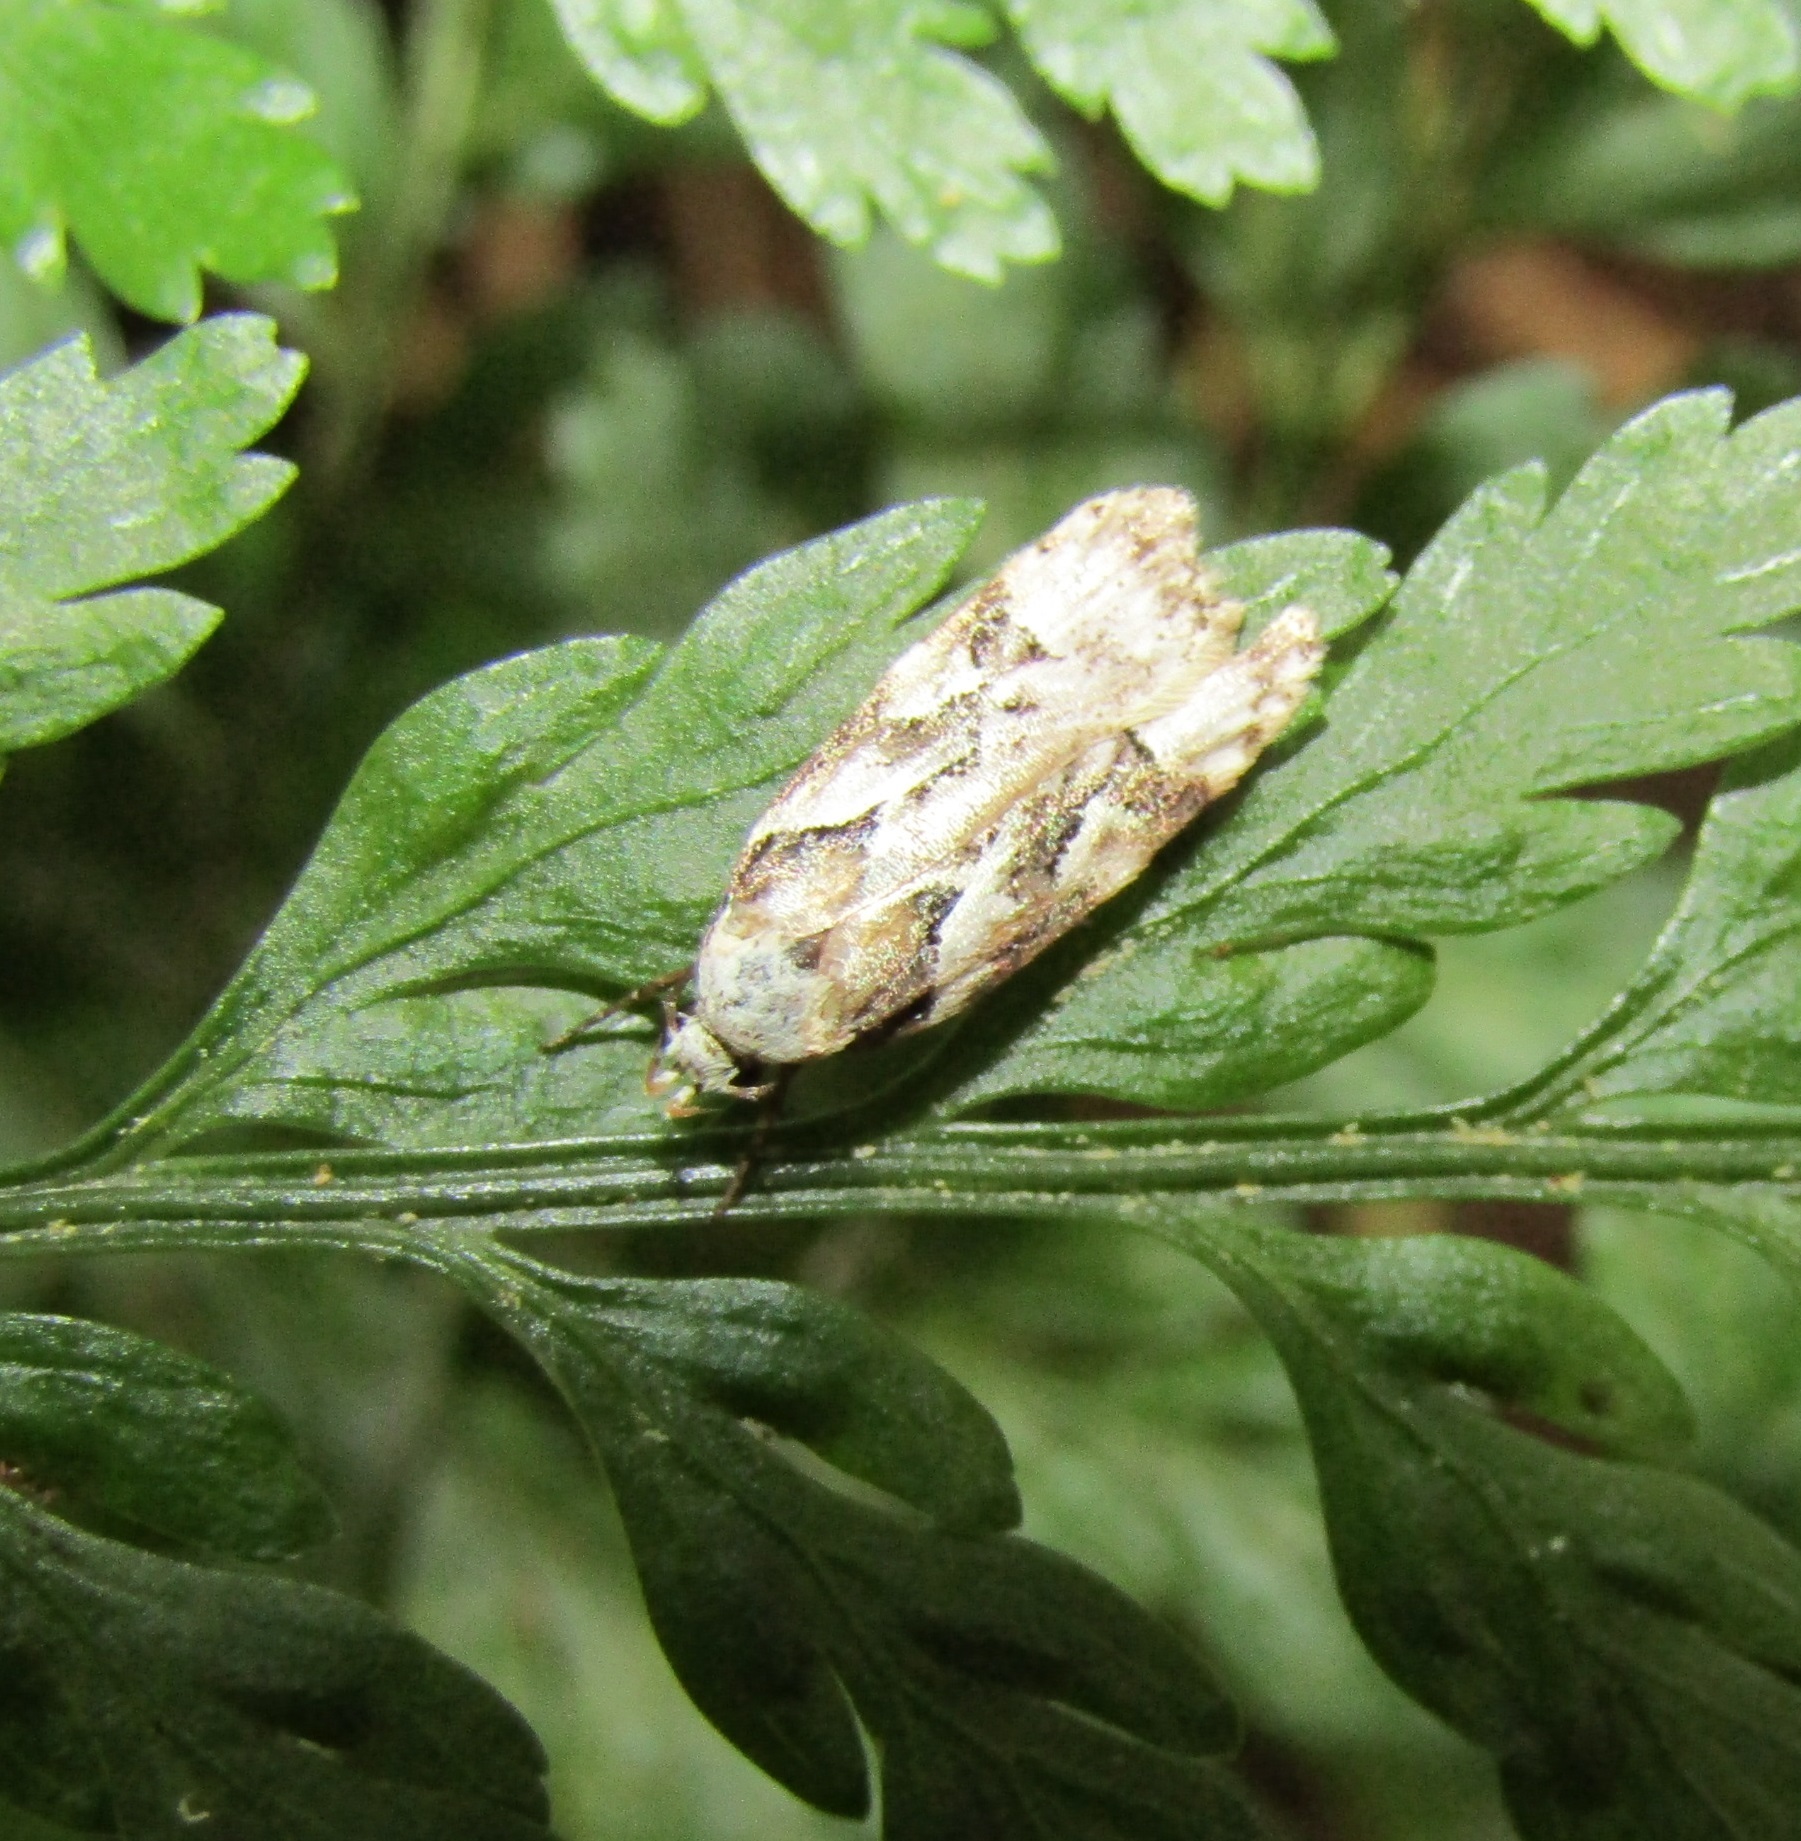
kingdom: Animalia
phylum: Arthropoda
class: Insecta
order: Lepidoptera
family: Oecophoridae
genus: Izatha
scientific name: Izatha epiphanes
